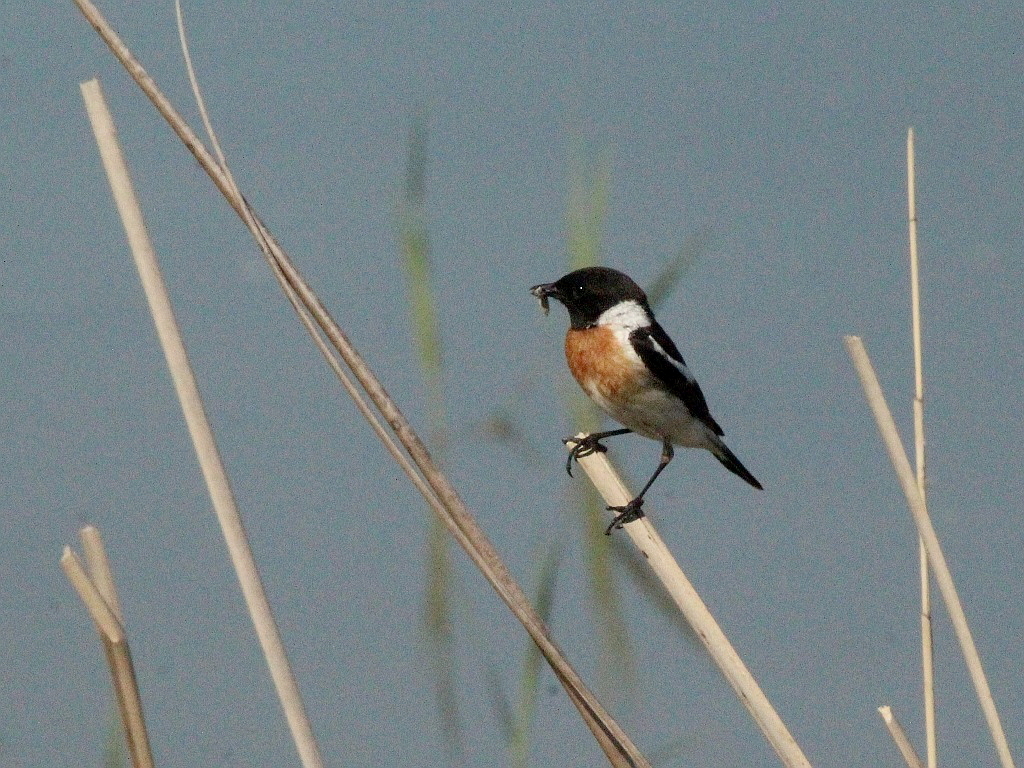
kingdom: Animalia
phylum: Chordata
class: Aves
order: Passeriformes
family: Muscicapidae
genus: Saxicola
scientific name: Saxicola maurus
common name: Siberian stonechat
